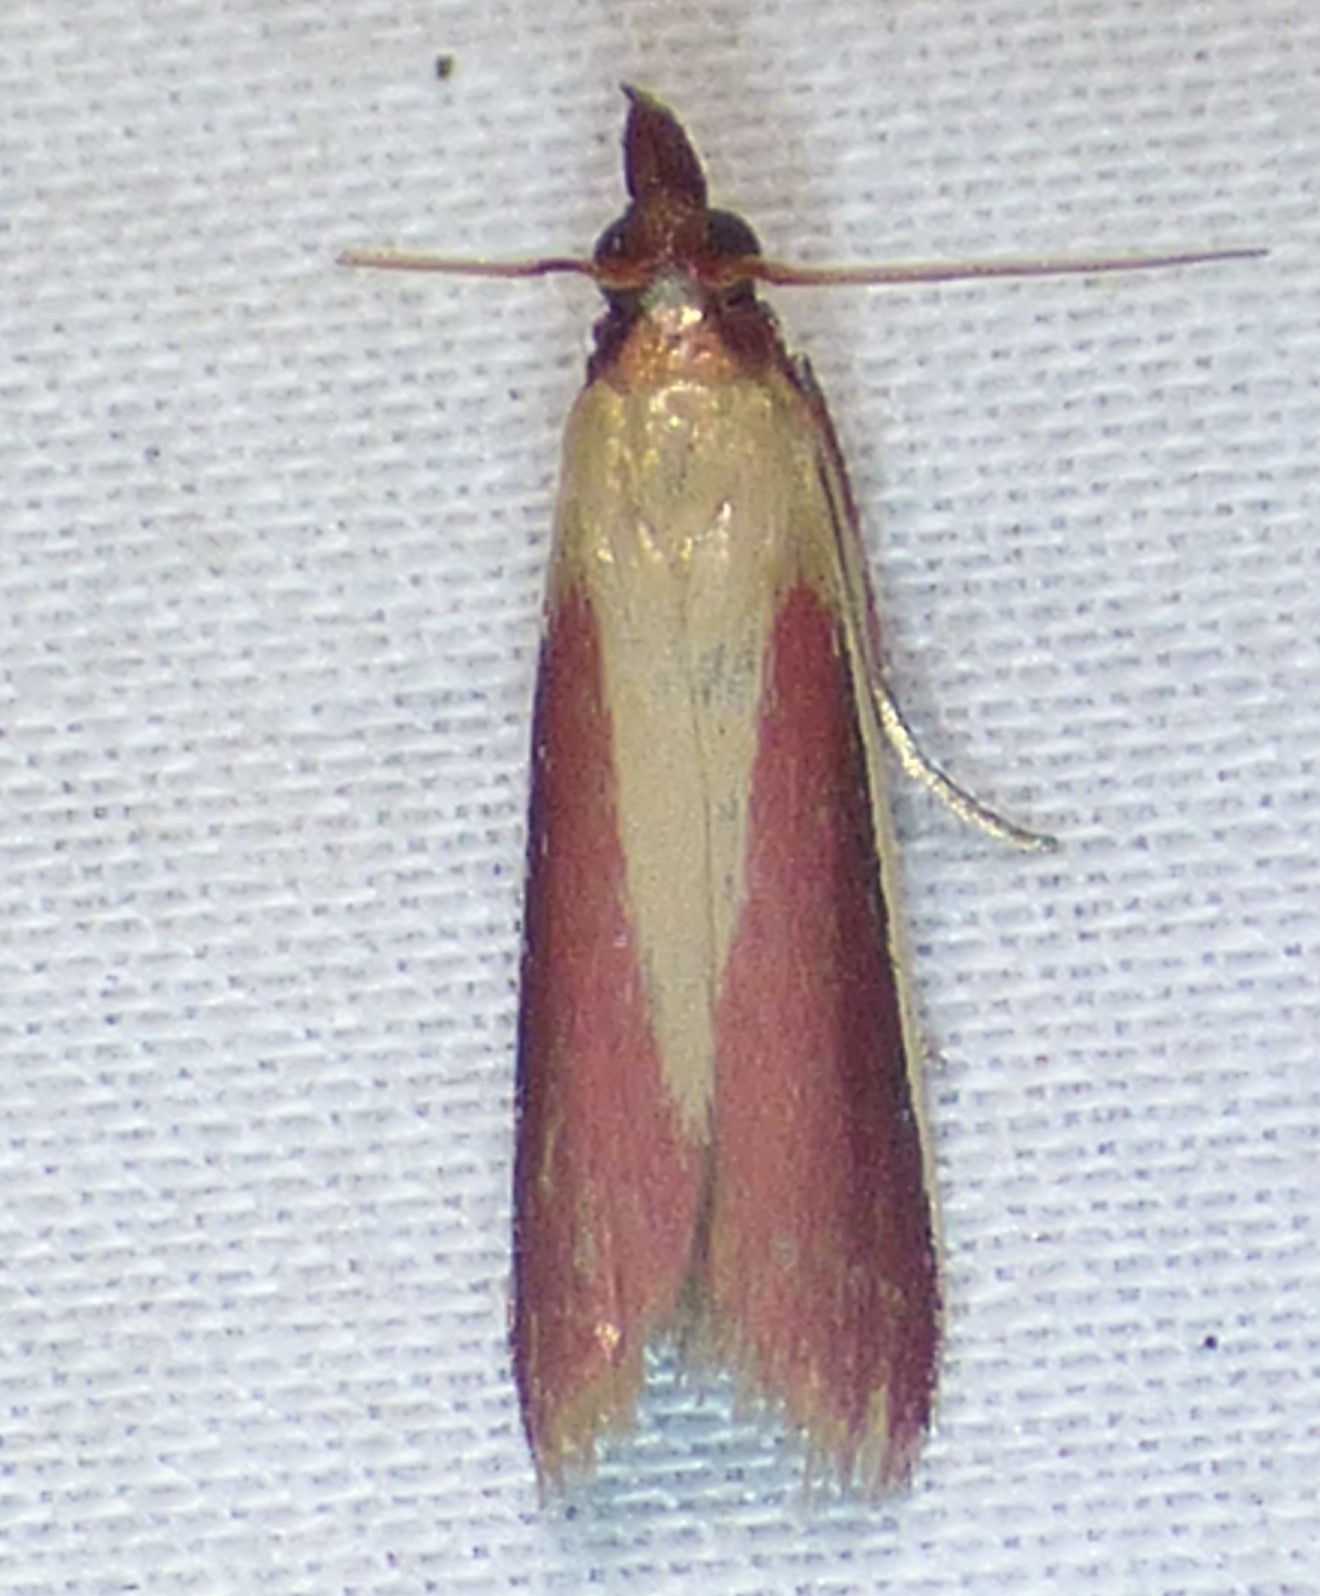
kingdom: Animalia
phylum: Arthropoda
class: Insecta
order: Lepidoptera
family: Pyralidae
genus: Peoria
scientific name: Peoria approximella
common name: Carmine snout
